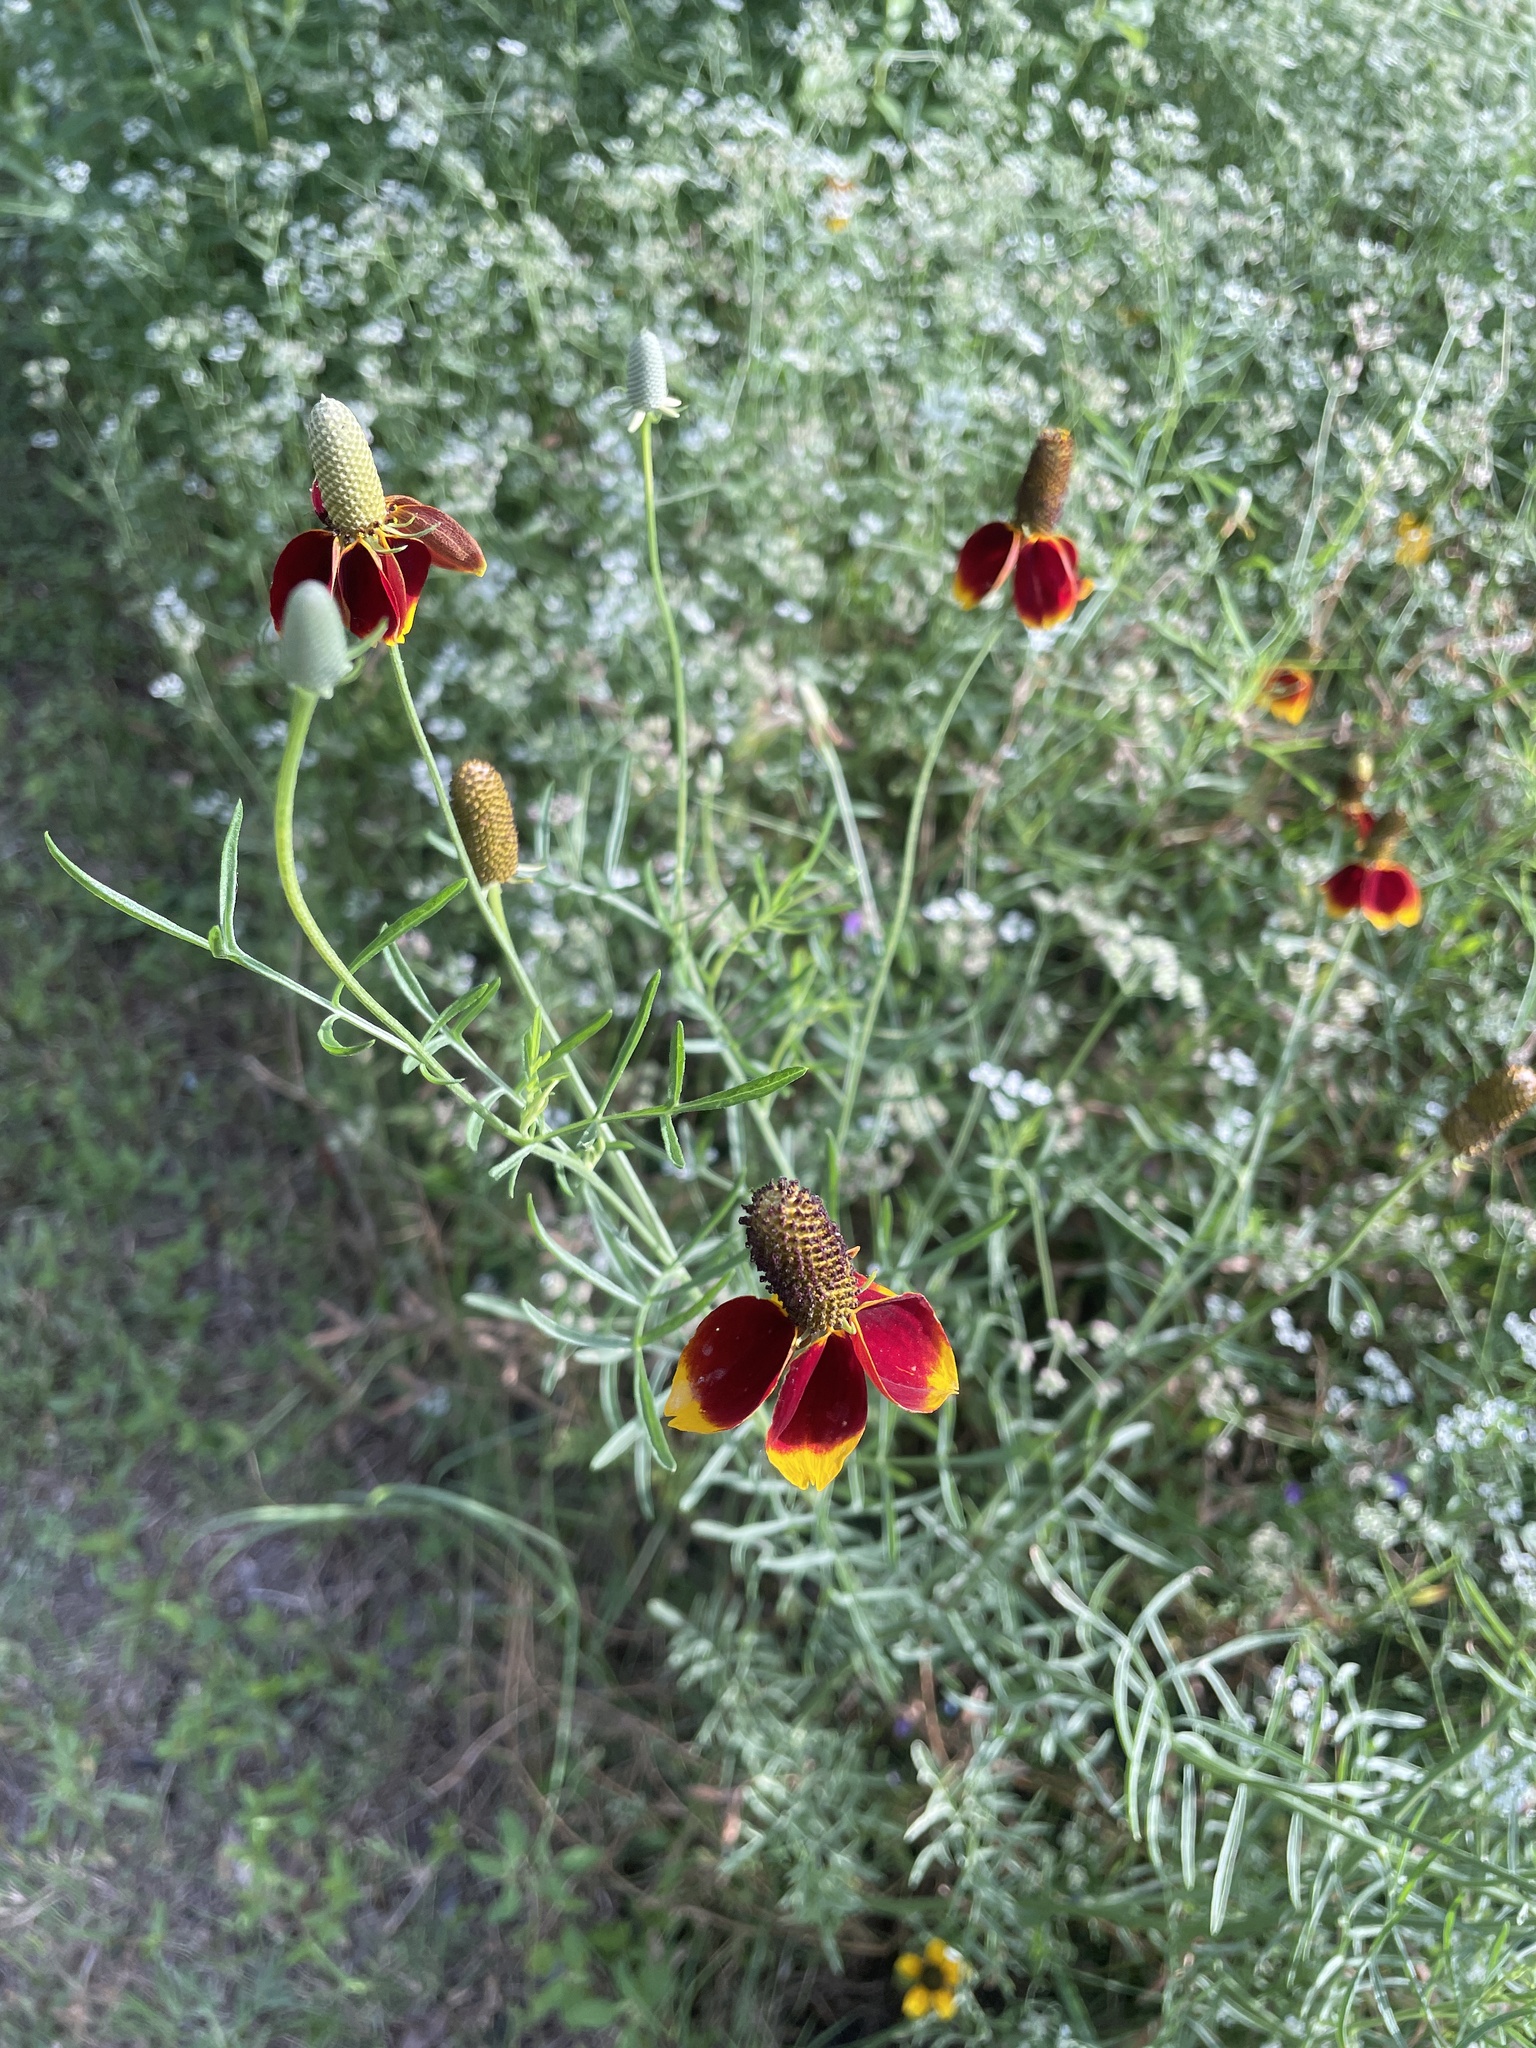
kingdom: Plantae
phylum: Tracheophyta
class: Magnoliopsida
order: Asterales
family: Asteraceae
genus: Ratibida
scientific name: Ratibida columnifera
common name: Prairie coneflower
